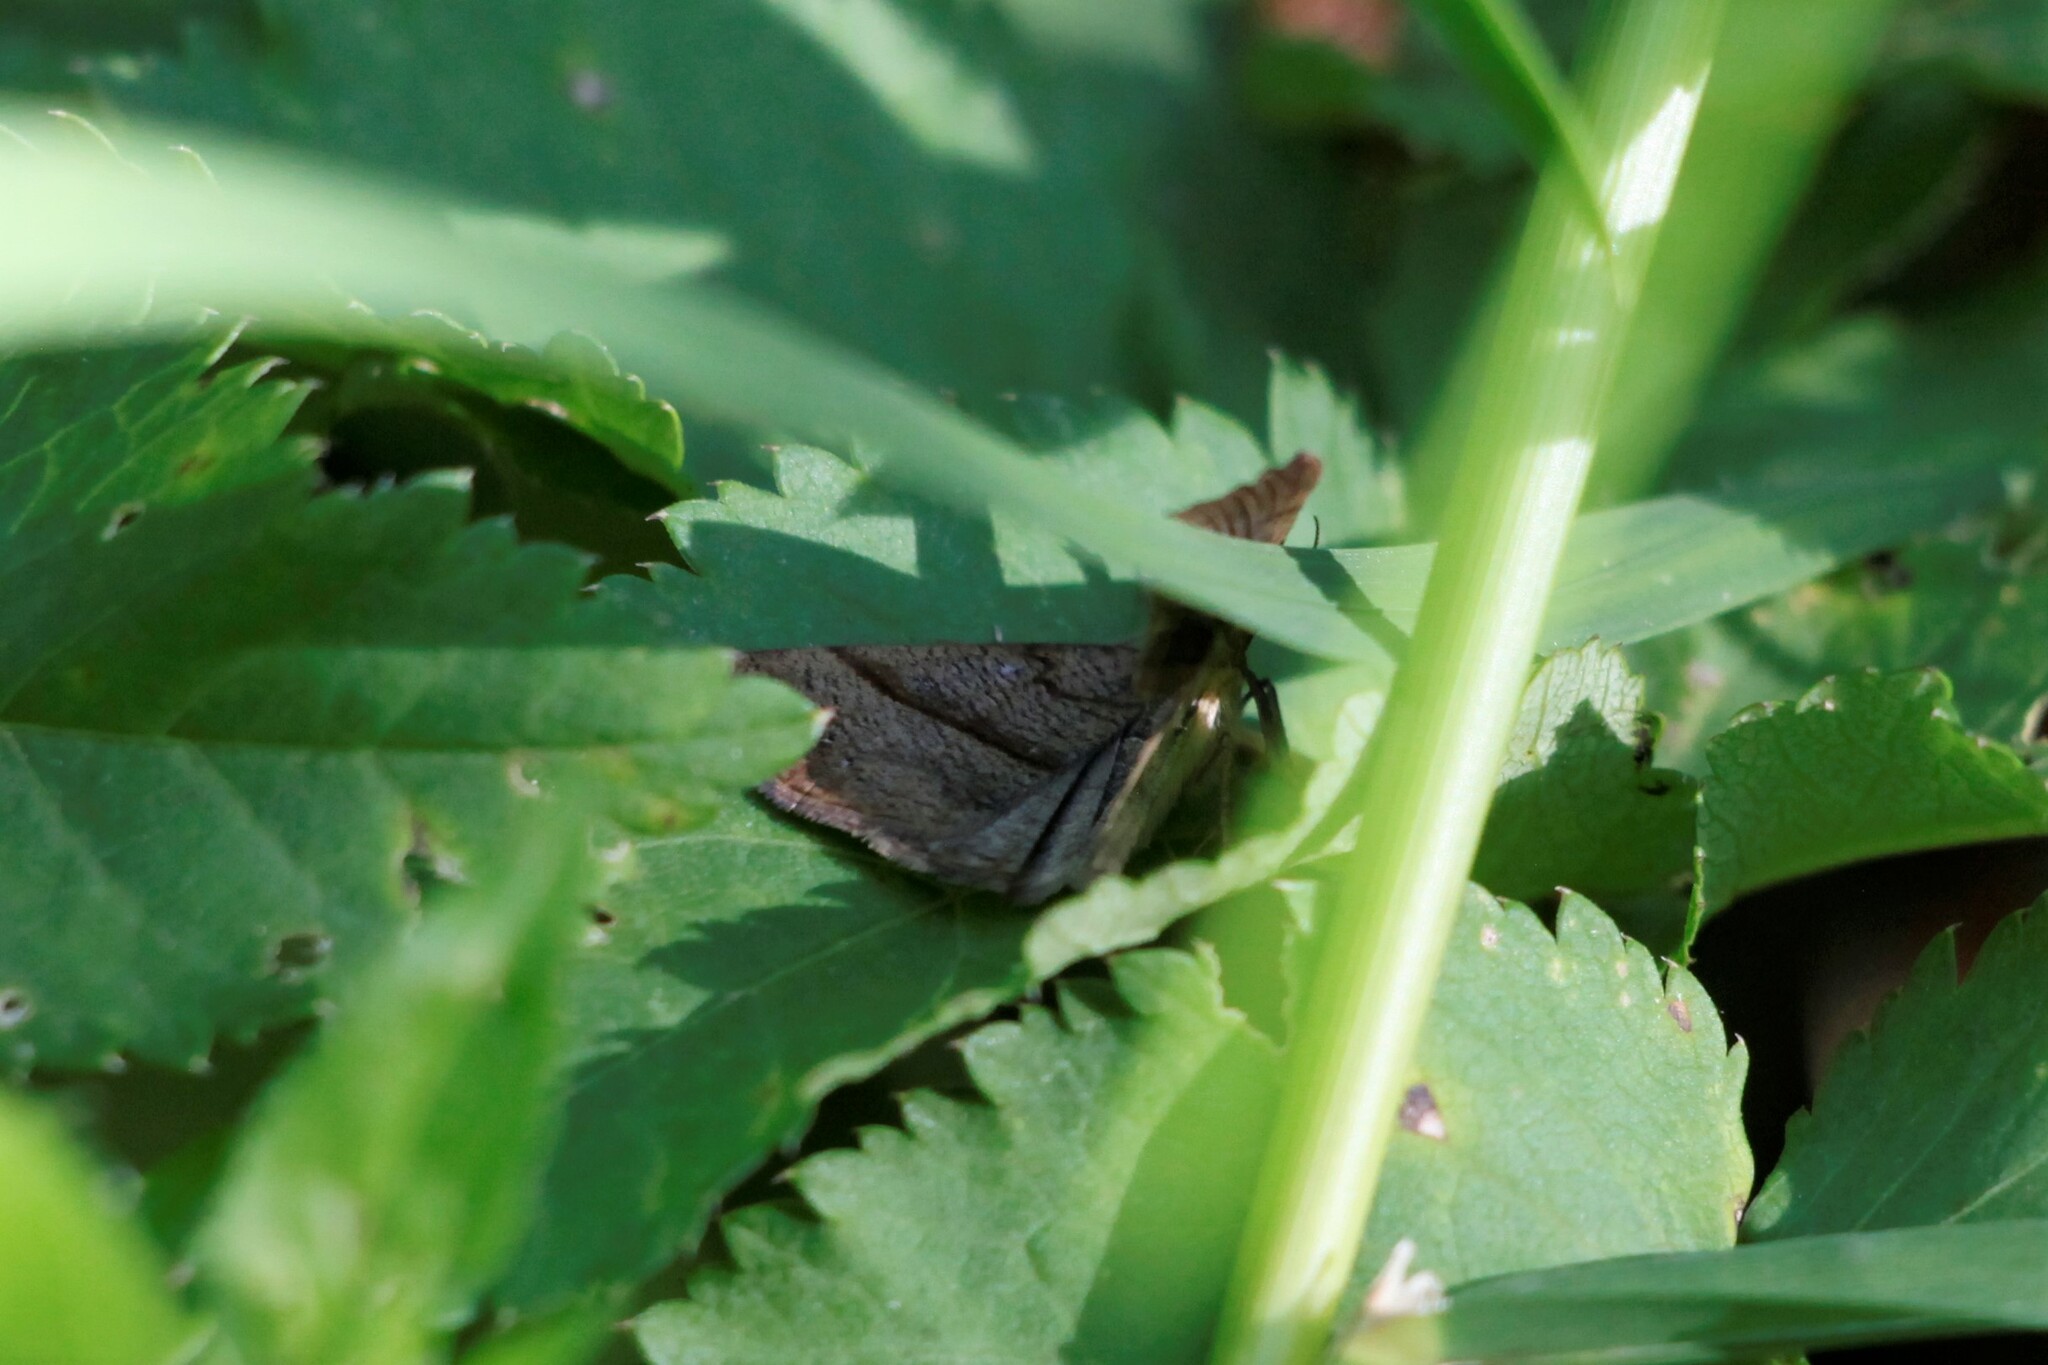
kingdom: Animalia
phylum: Arthropoda
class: Insecta
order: Lepidoptera
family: Erebidae
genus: Hypena
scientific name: Hypena proboscidalis
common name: Snout
